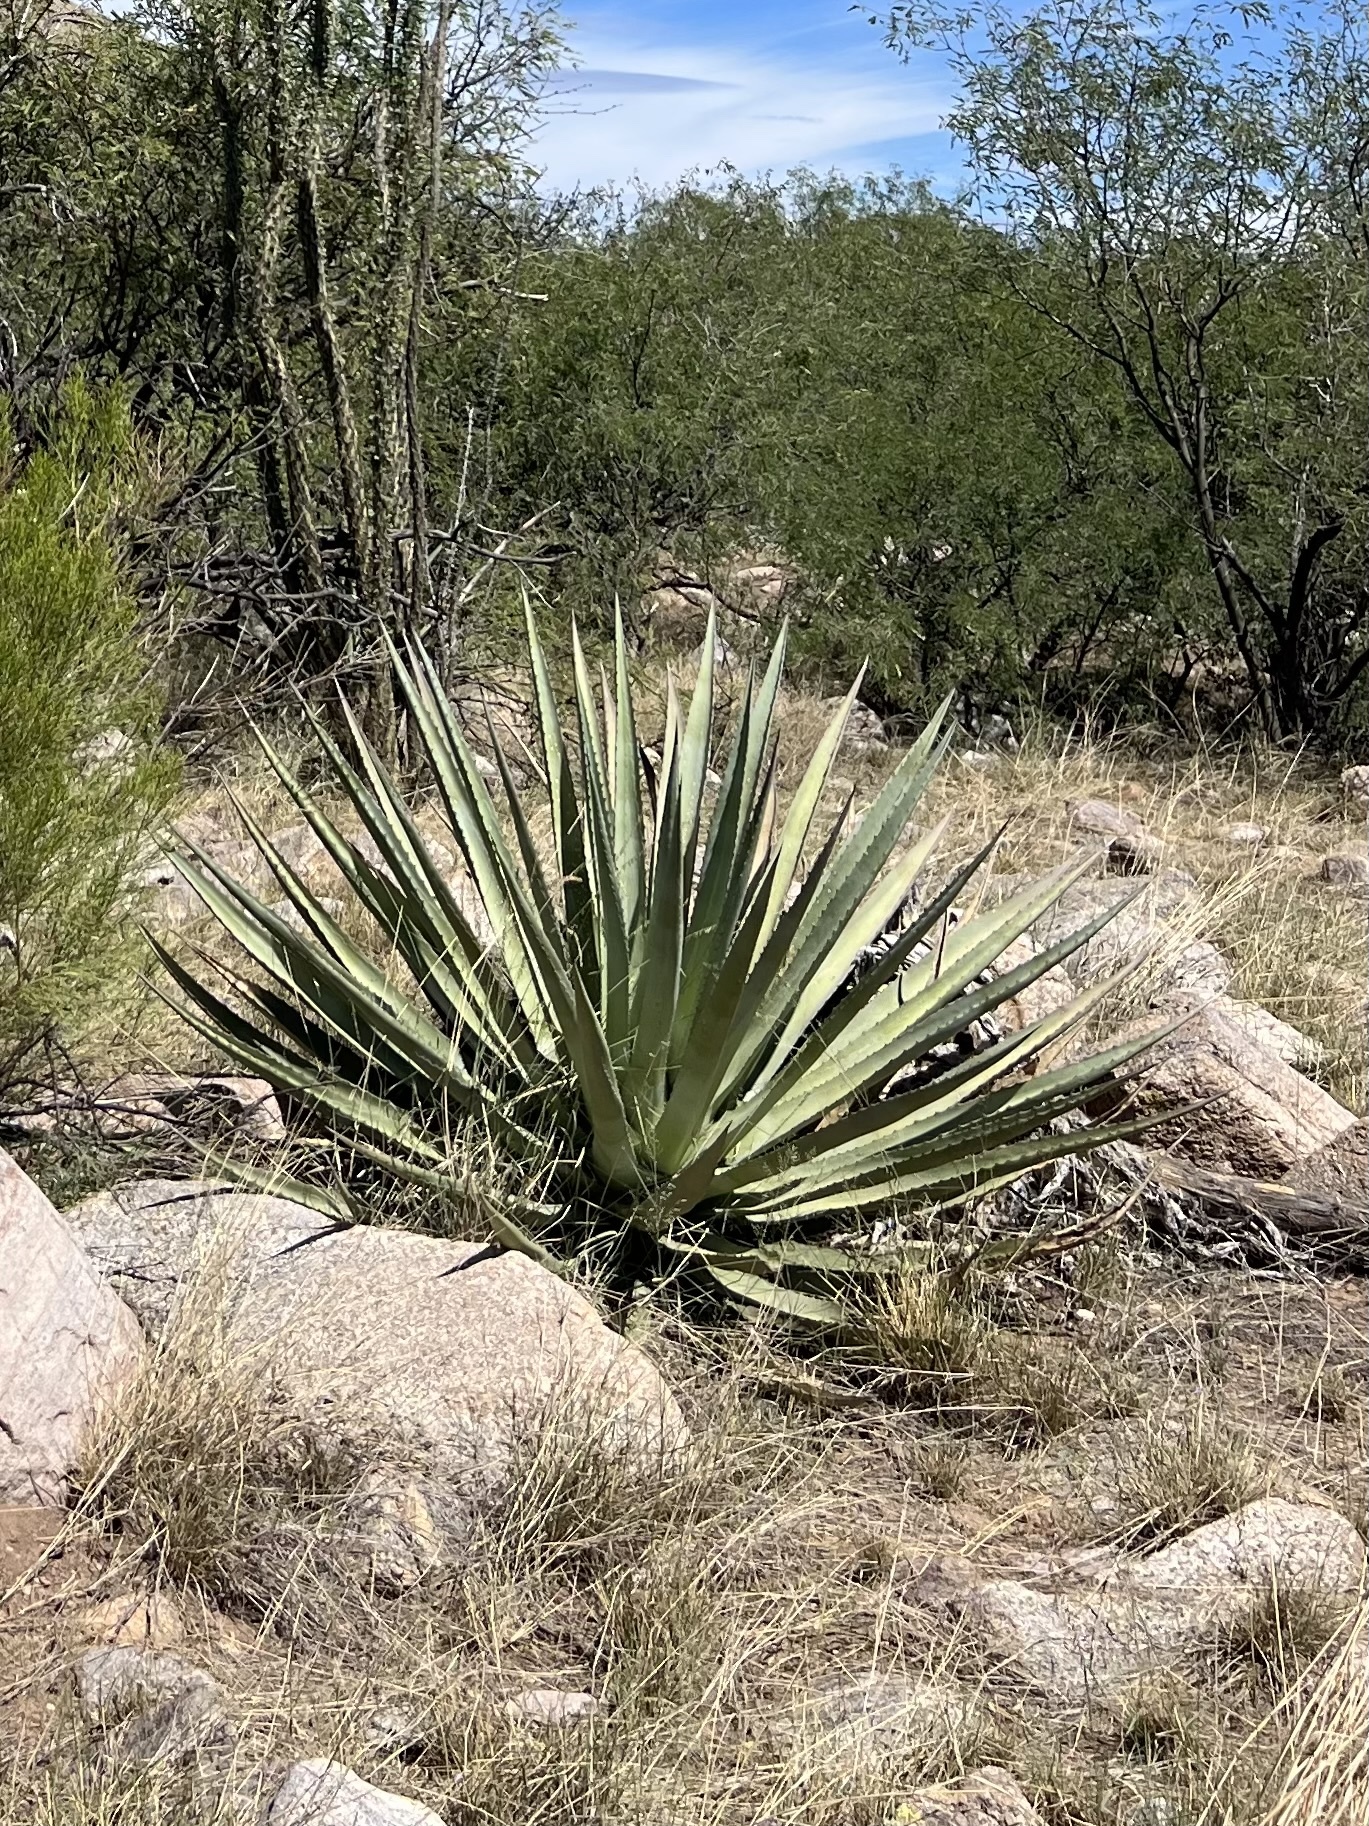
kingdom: Plantae
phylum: Tracheophyta
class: Liliopsida
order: Asparagales
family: Asparagaceae
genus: Agave
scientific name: Agave palmeri
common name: Palmer agave
